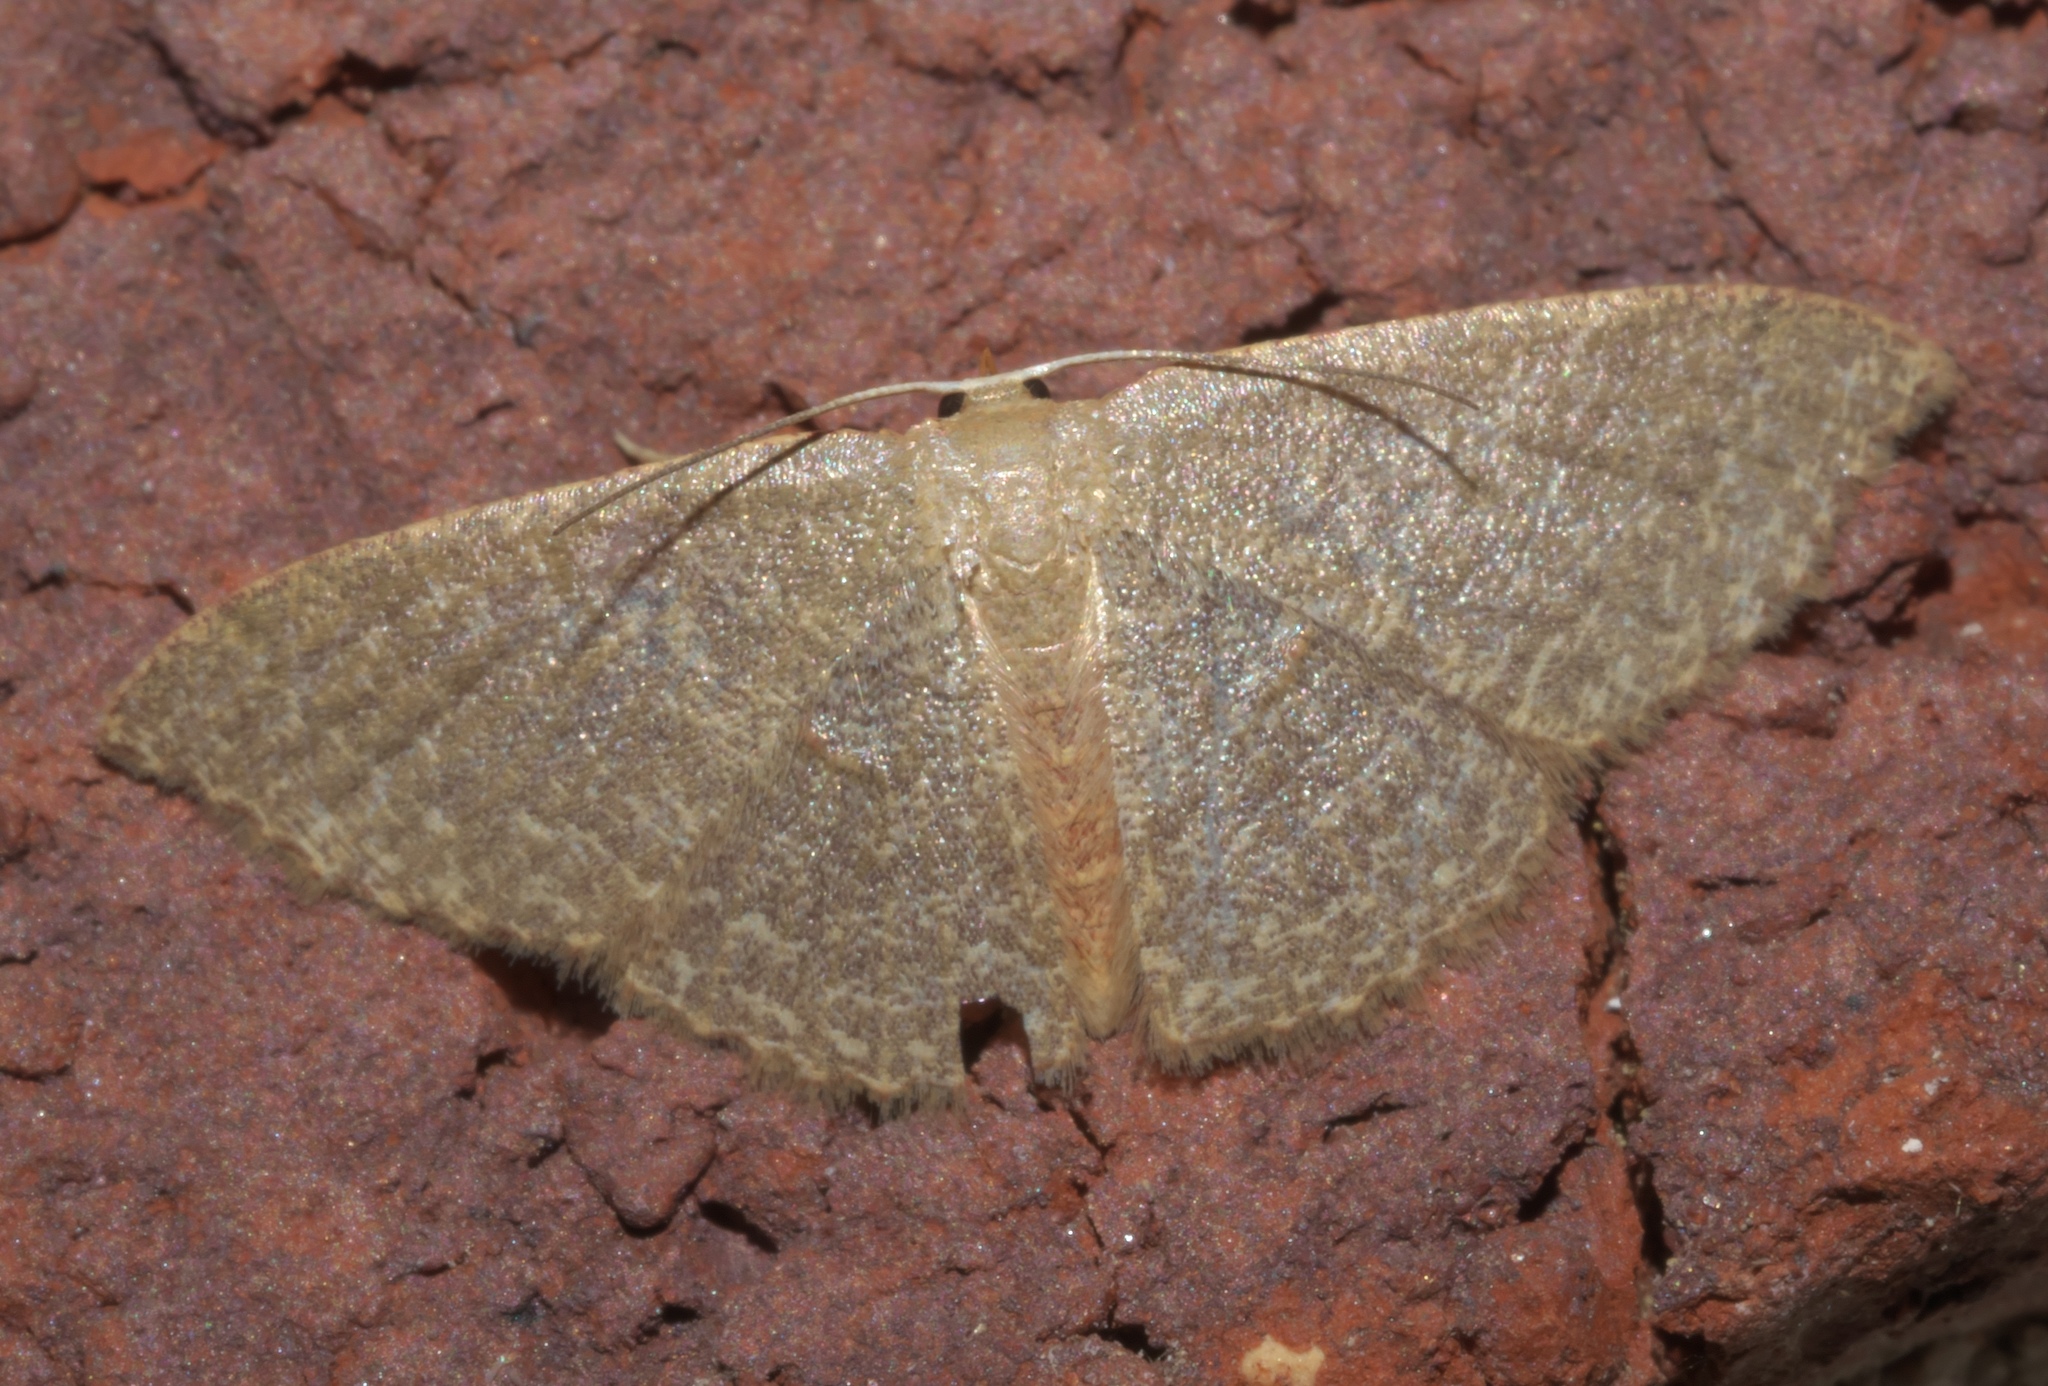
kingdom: Animalia
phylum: Arthropoda
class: Insecta
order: Lepidoptera
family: Geometridae
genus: Pleuroprucha
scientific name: Pleuroprucha insulsaria
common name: Common tan wave
